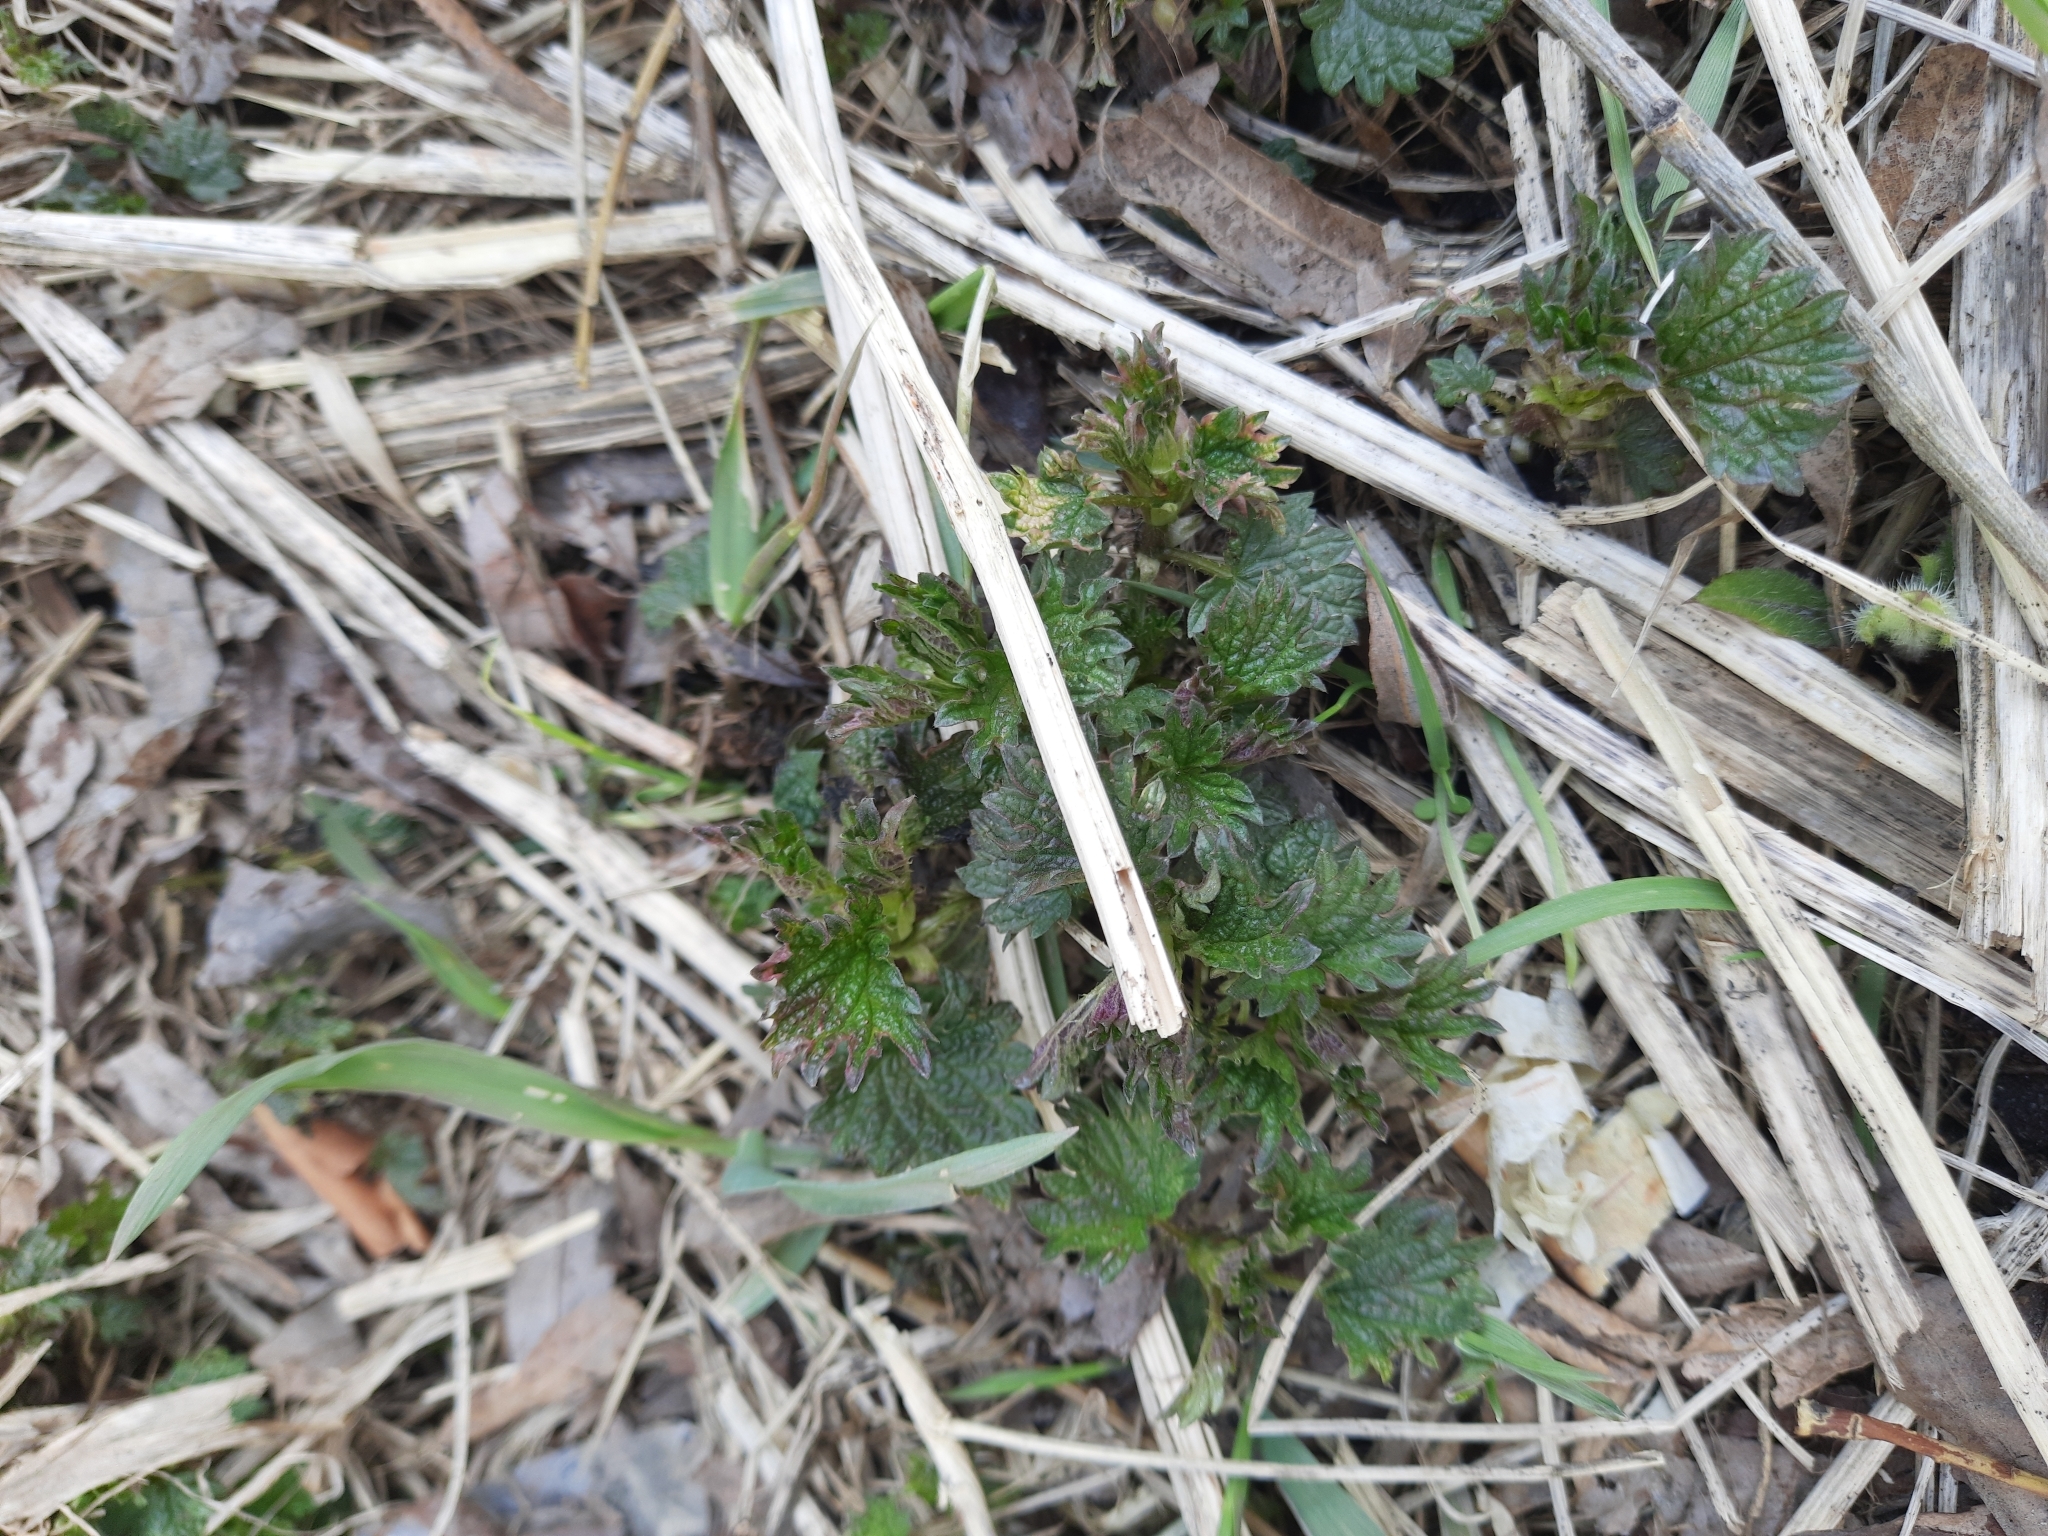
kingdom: Plantae
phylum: Tracheophyta
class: Magnoliopsida
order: Rosales
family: Urticaceae
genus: Urtica
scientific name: Urtica dioica
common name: Common nettle
